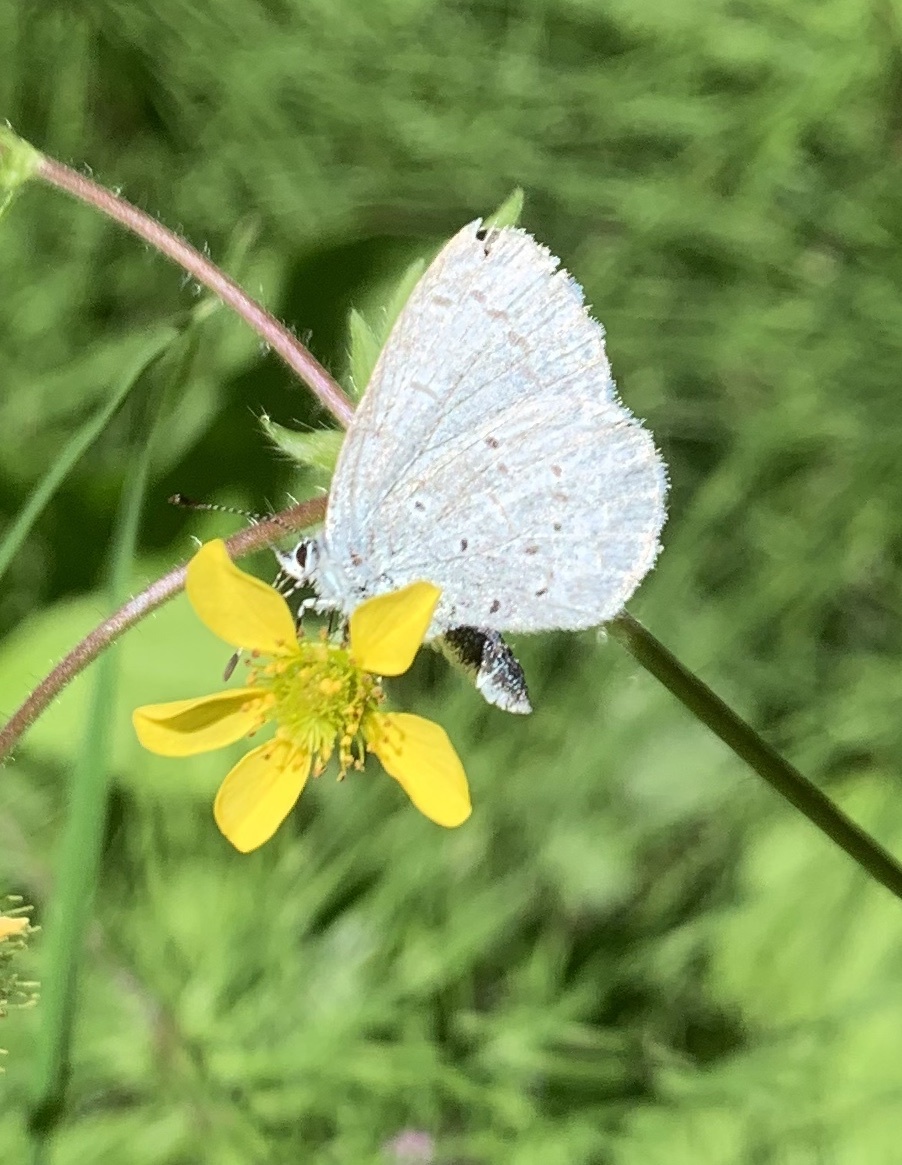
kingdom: Animalia
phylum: Arthropoda
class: Insecta
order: Lepidoptera
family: Lycaenidae
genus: Celastrina
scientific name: Celastrina ladon
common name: Spring azure
